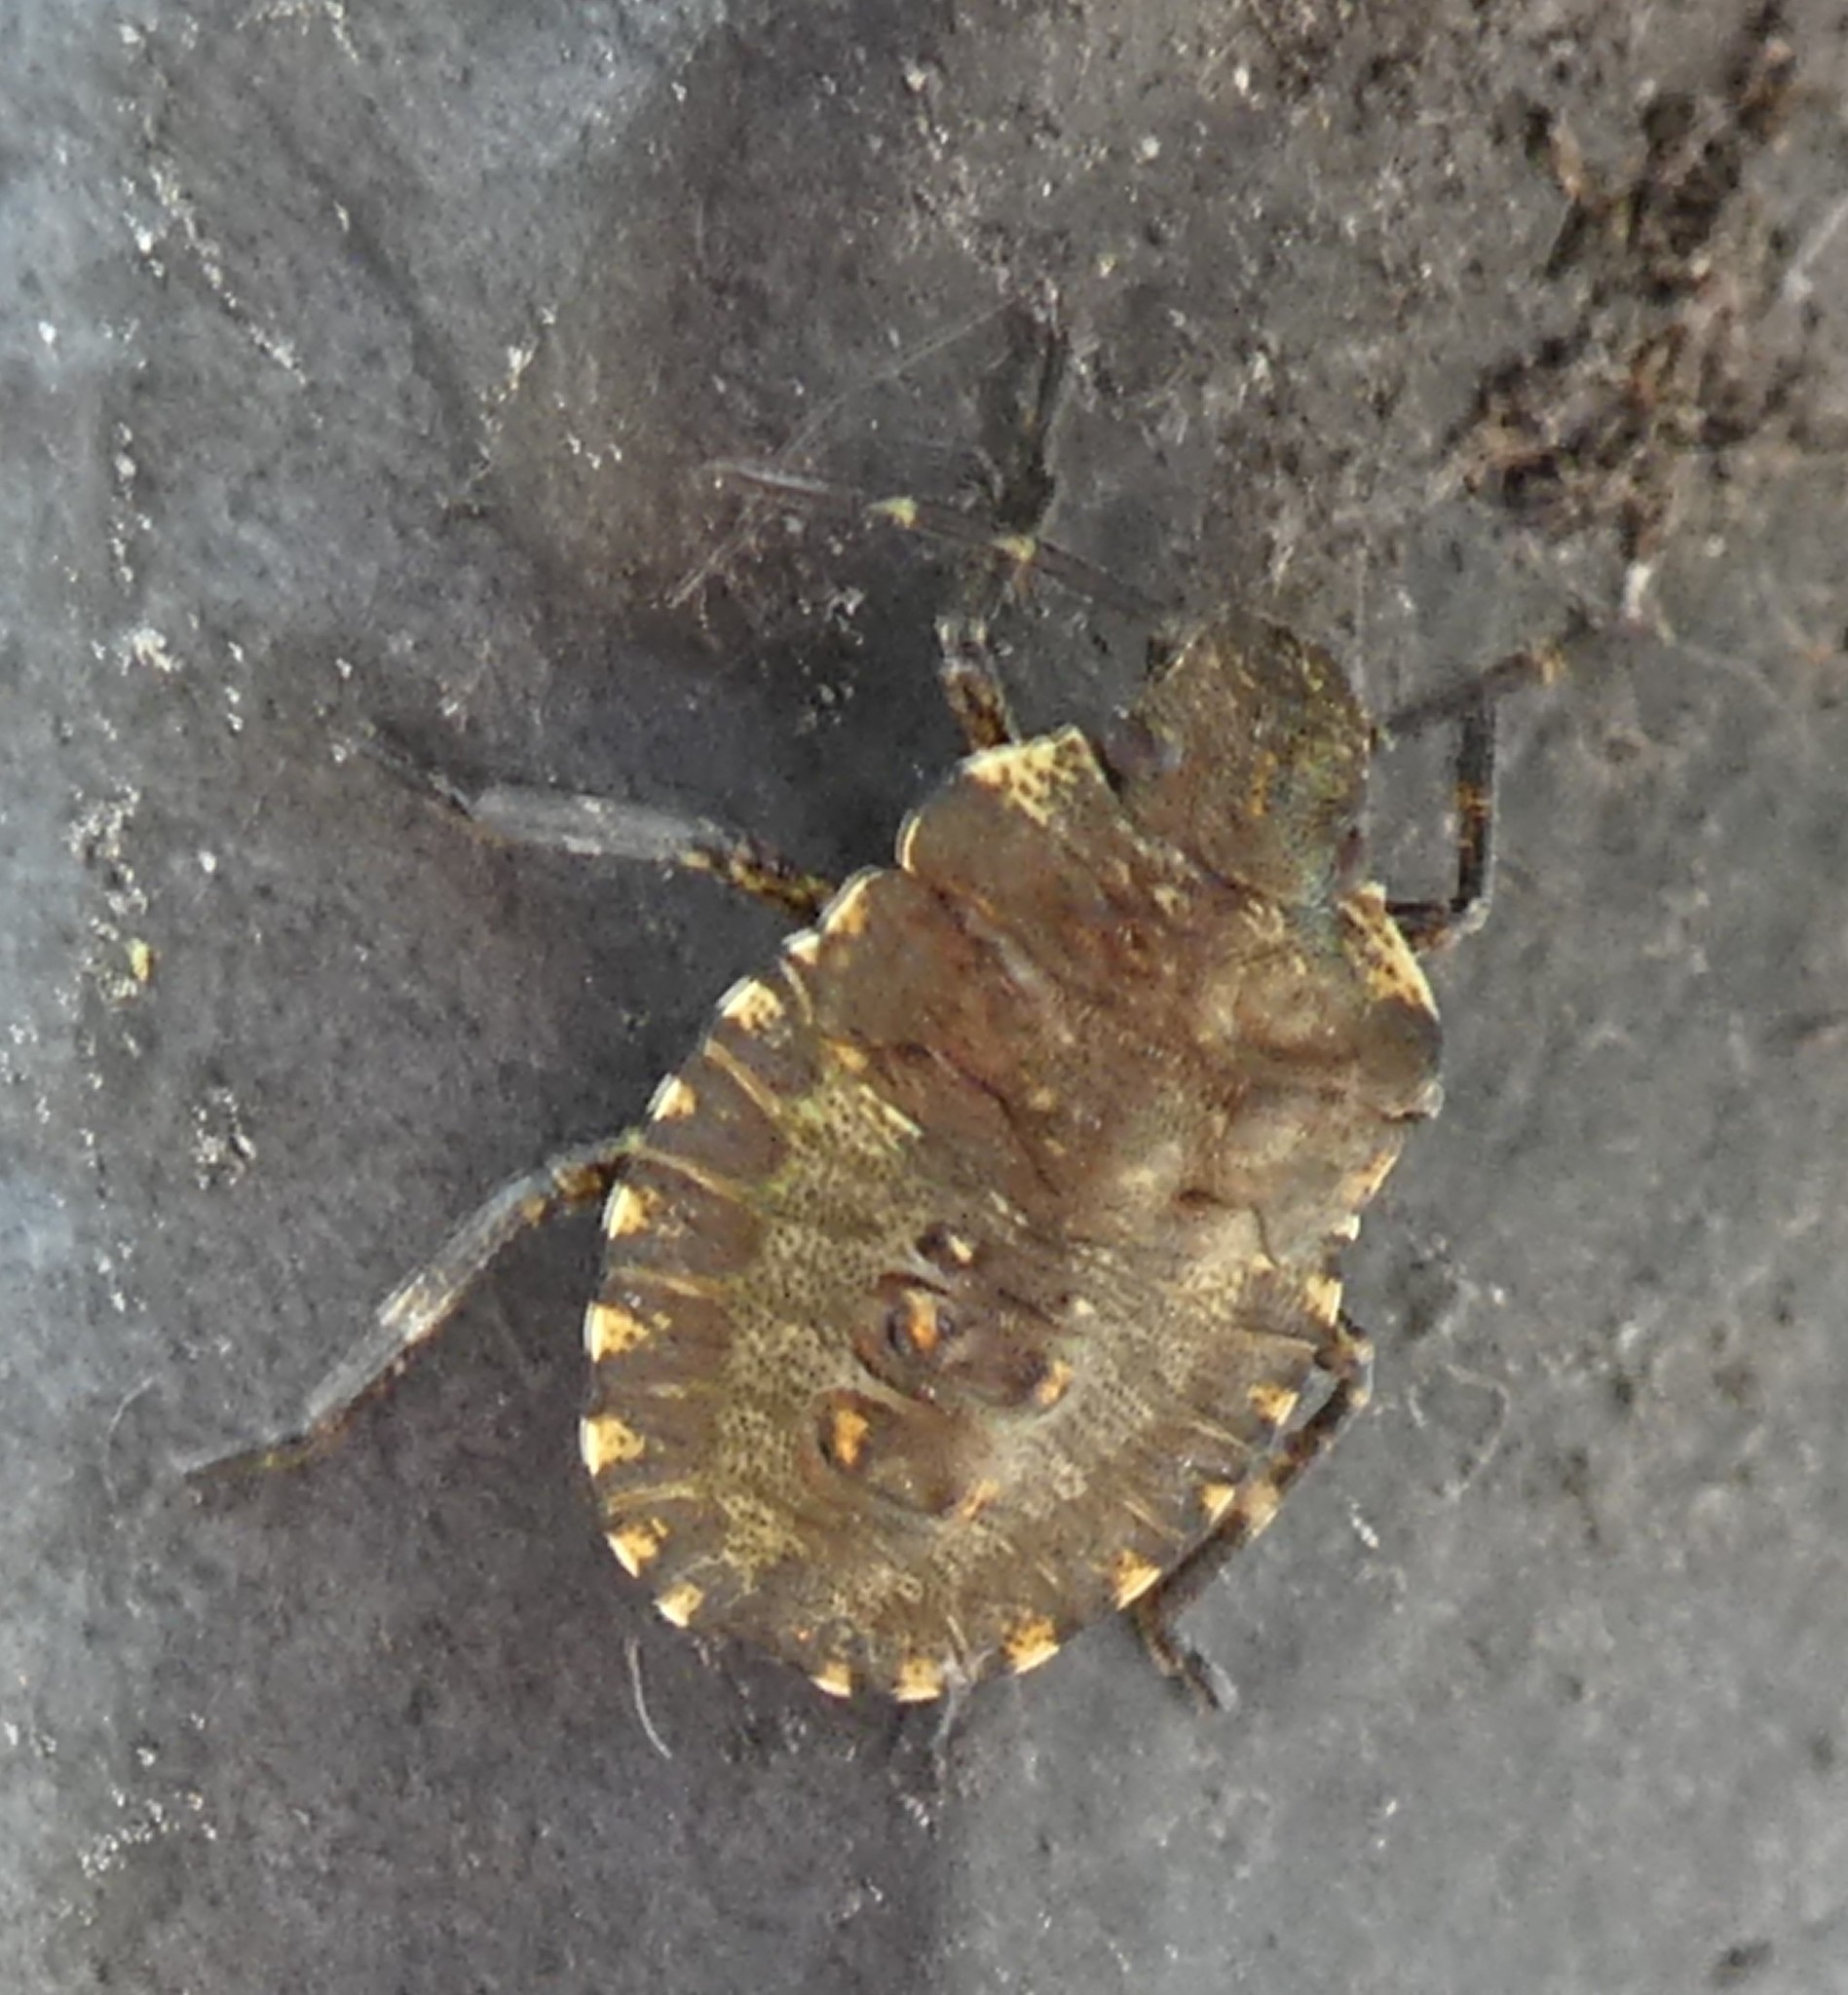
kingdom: Animalia
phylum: Arthropoda
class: Insecta
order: Hemiptera
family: Pentatomidae
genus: Pentatoma
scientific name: Pentatoma rufipes
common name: Forest bug
